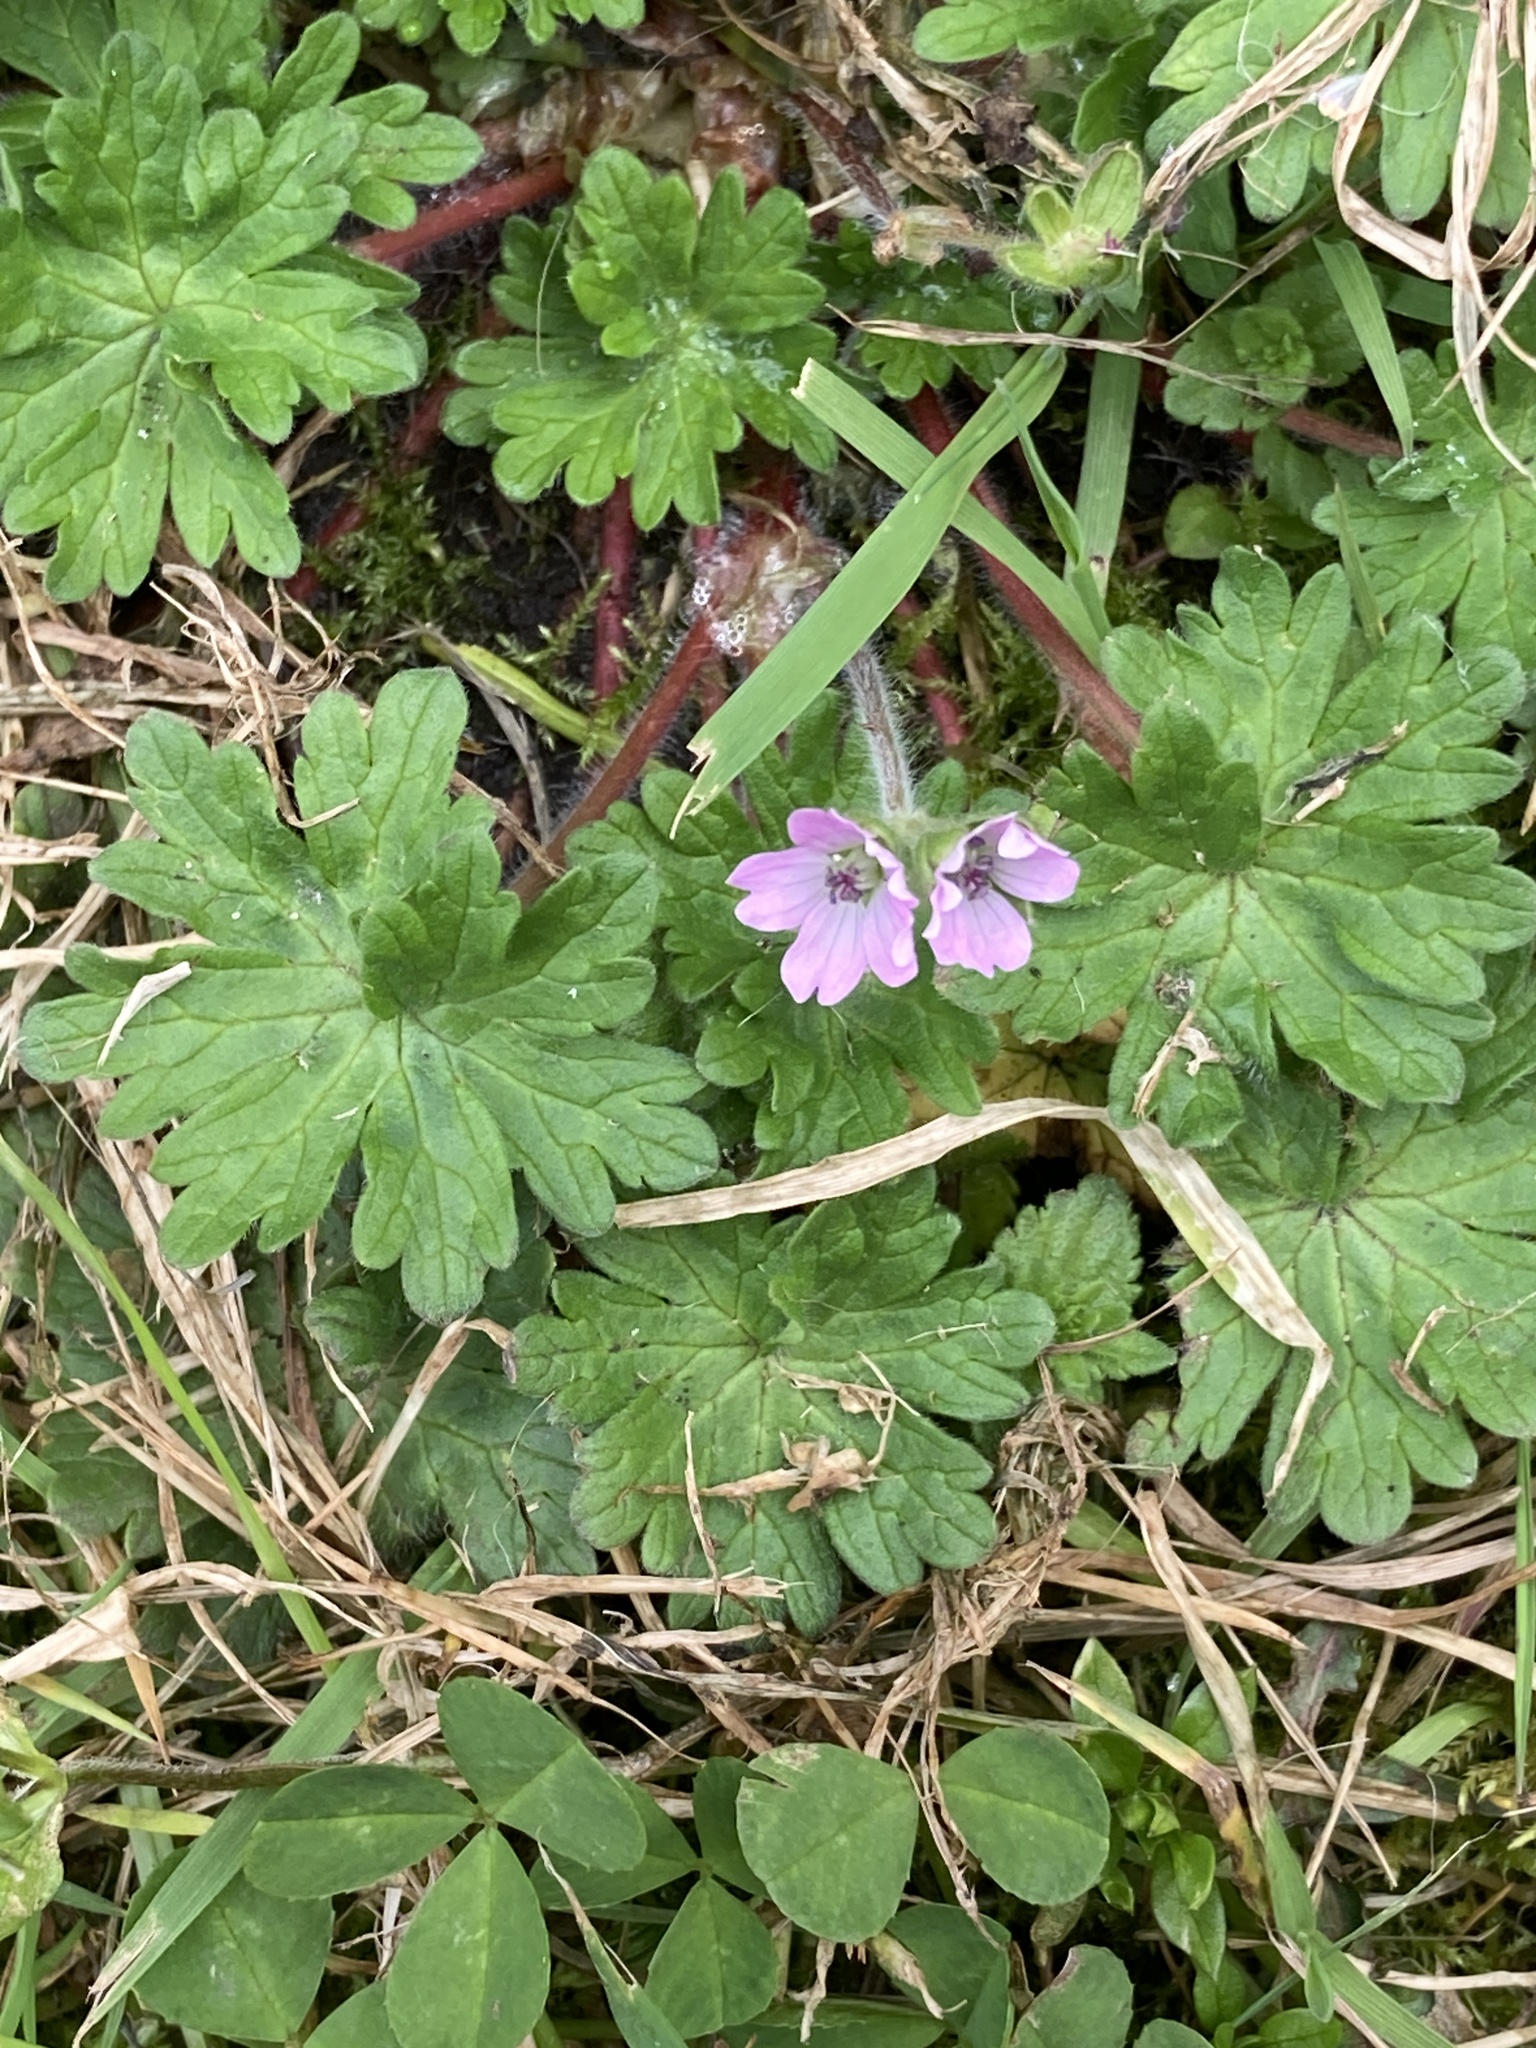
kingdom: Plantae
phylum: Tracheophyta
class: Magnoliopsida
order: Geraniales
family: Geraniaceae
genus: Geranium
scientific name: Geranium molle
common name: Dove's-foot crane's-bill
